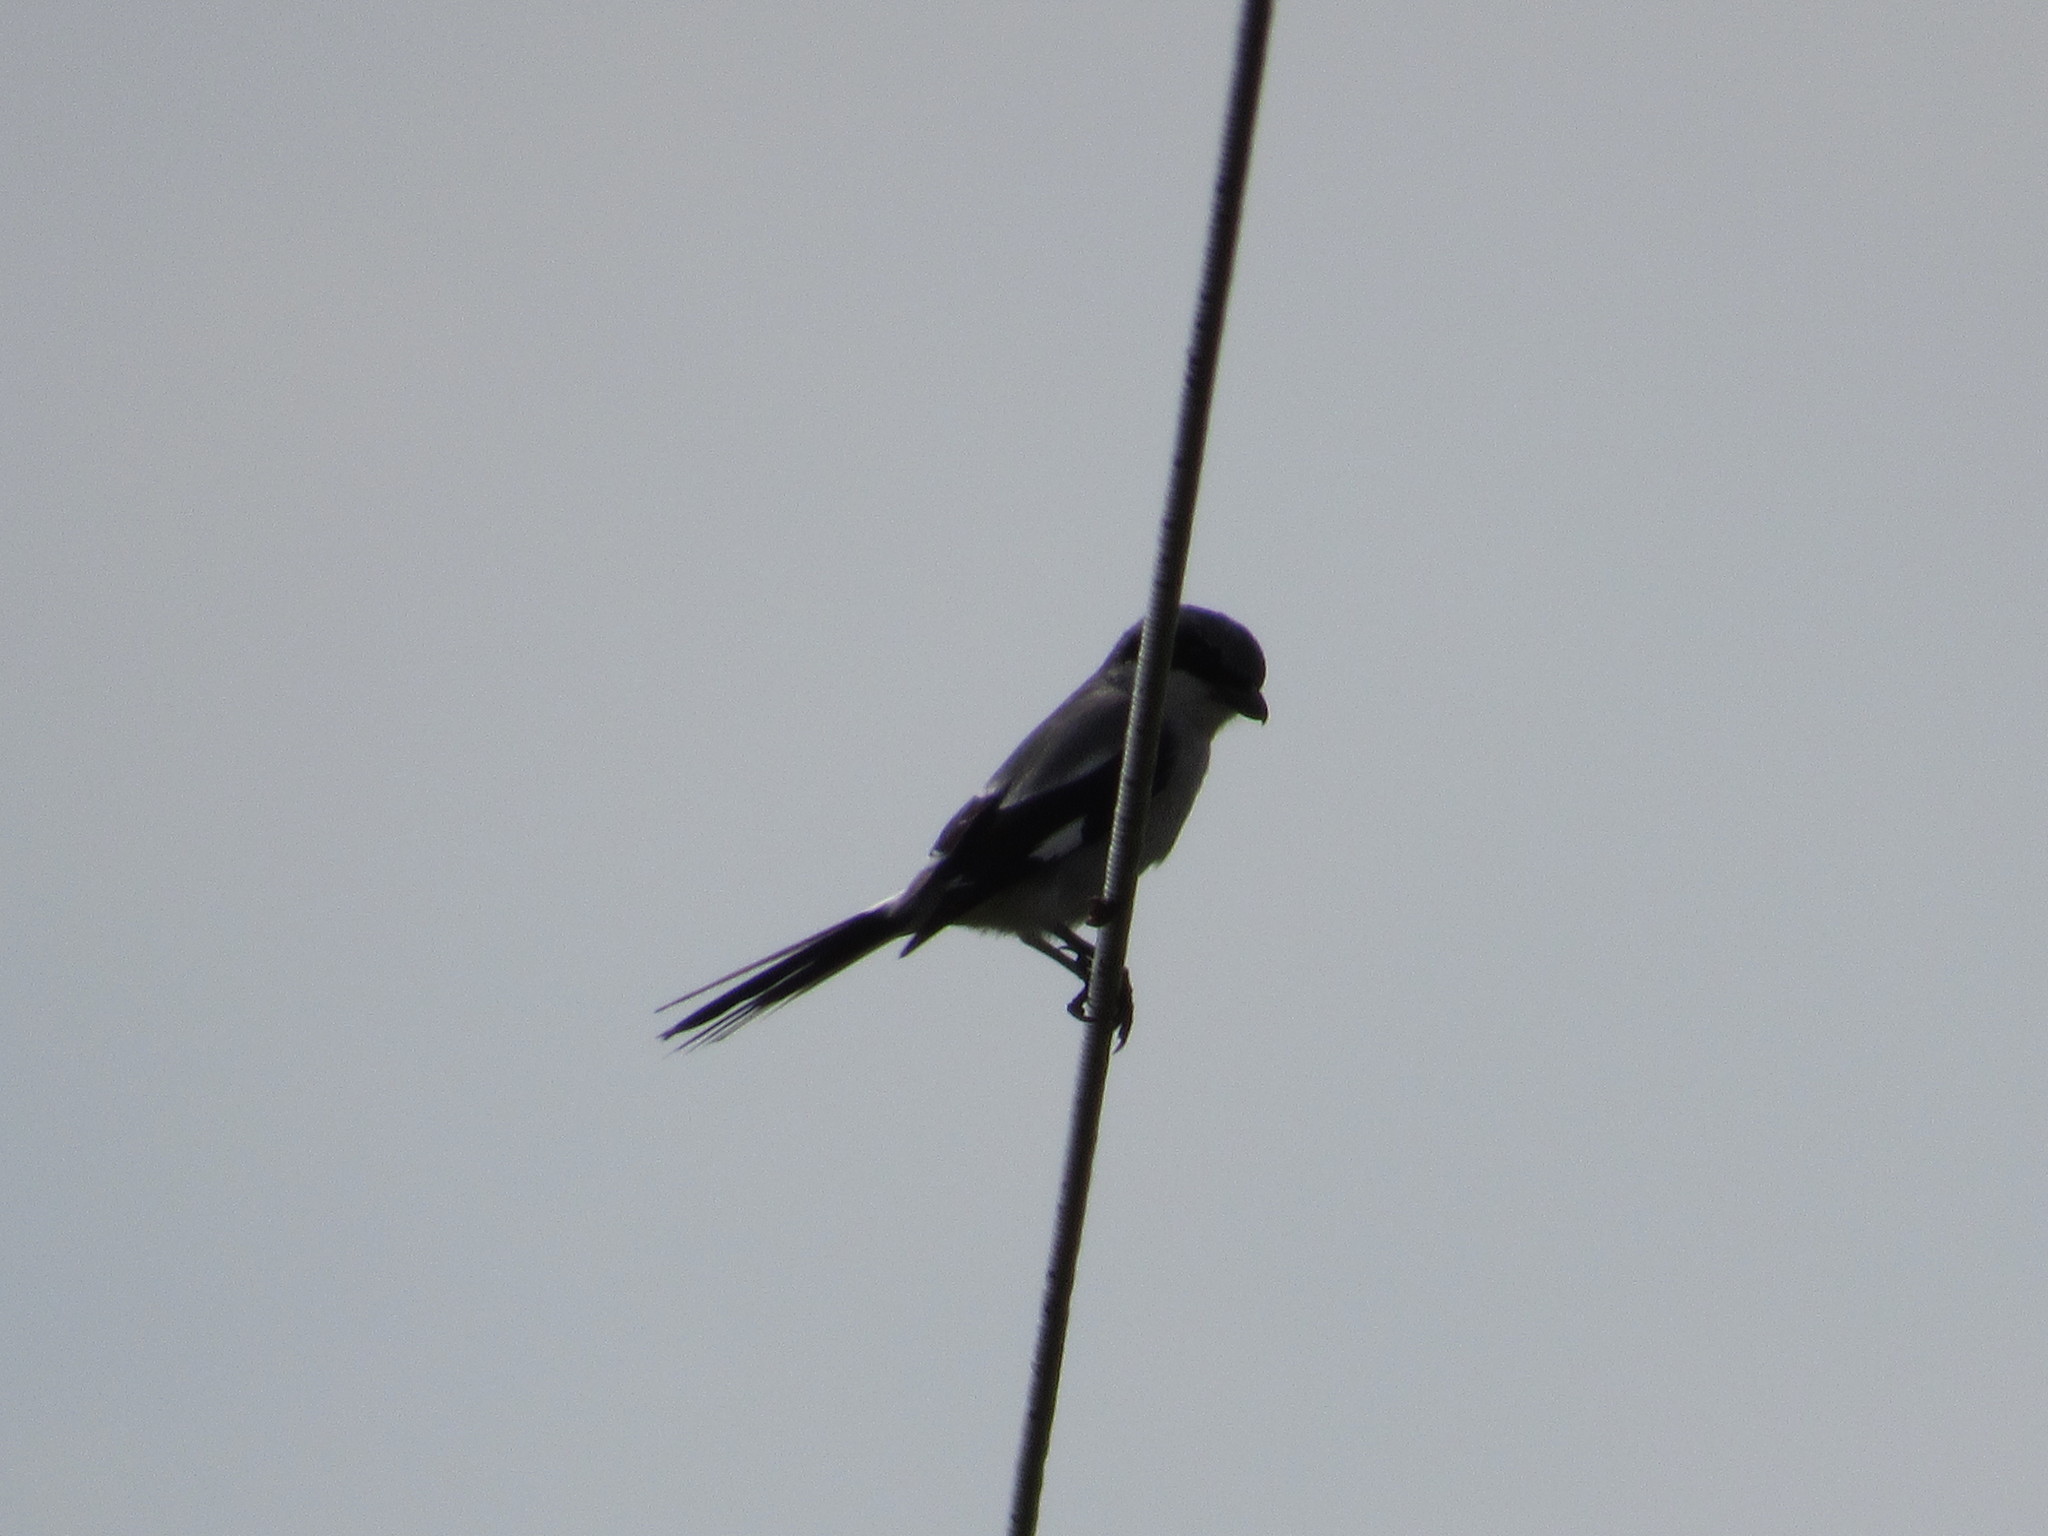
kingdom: Animalia
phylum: Chordata
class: Aves
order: Passeriformes
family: Laniidae
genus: Lanius
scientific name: Lanius ludovicianus
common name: Loggerhead shrike
